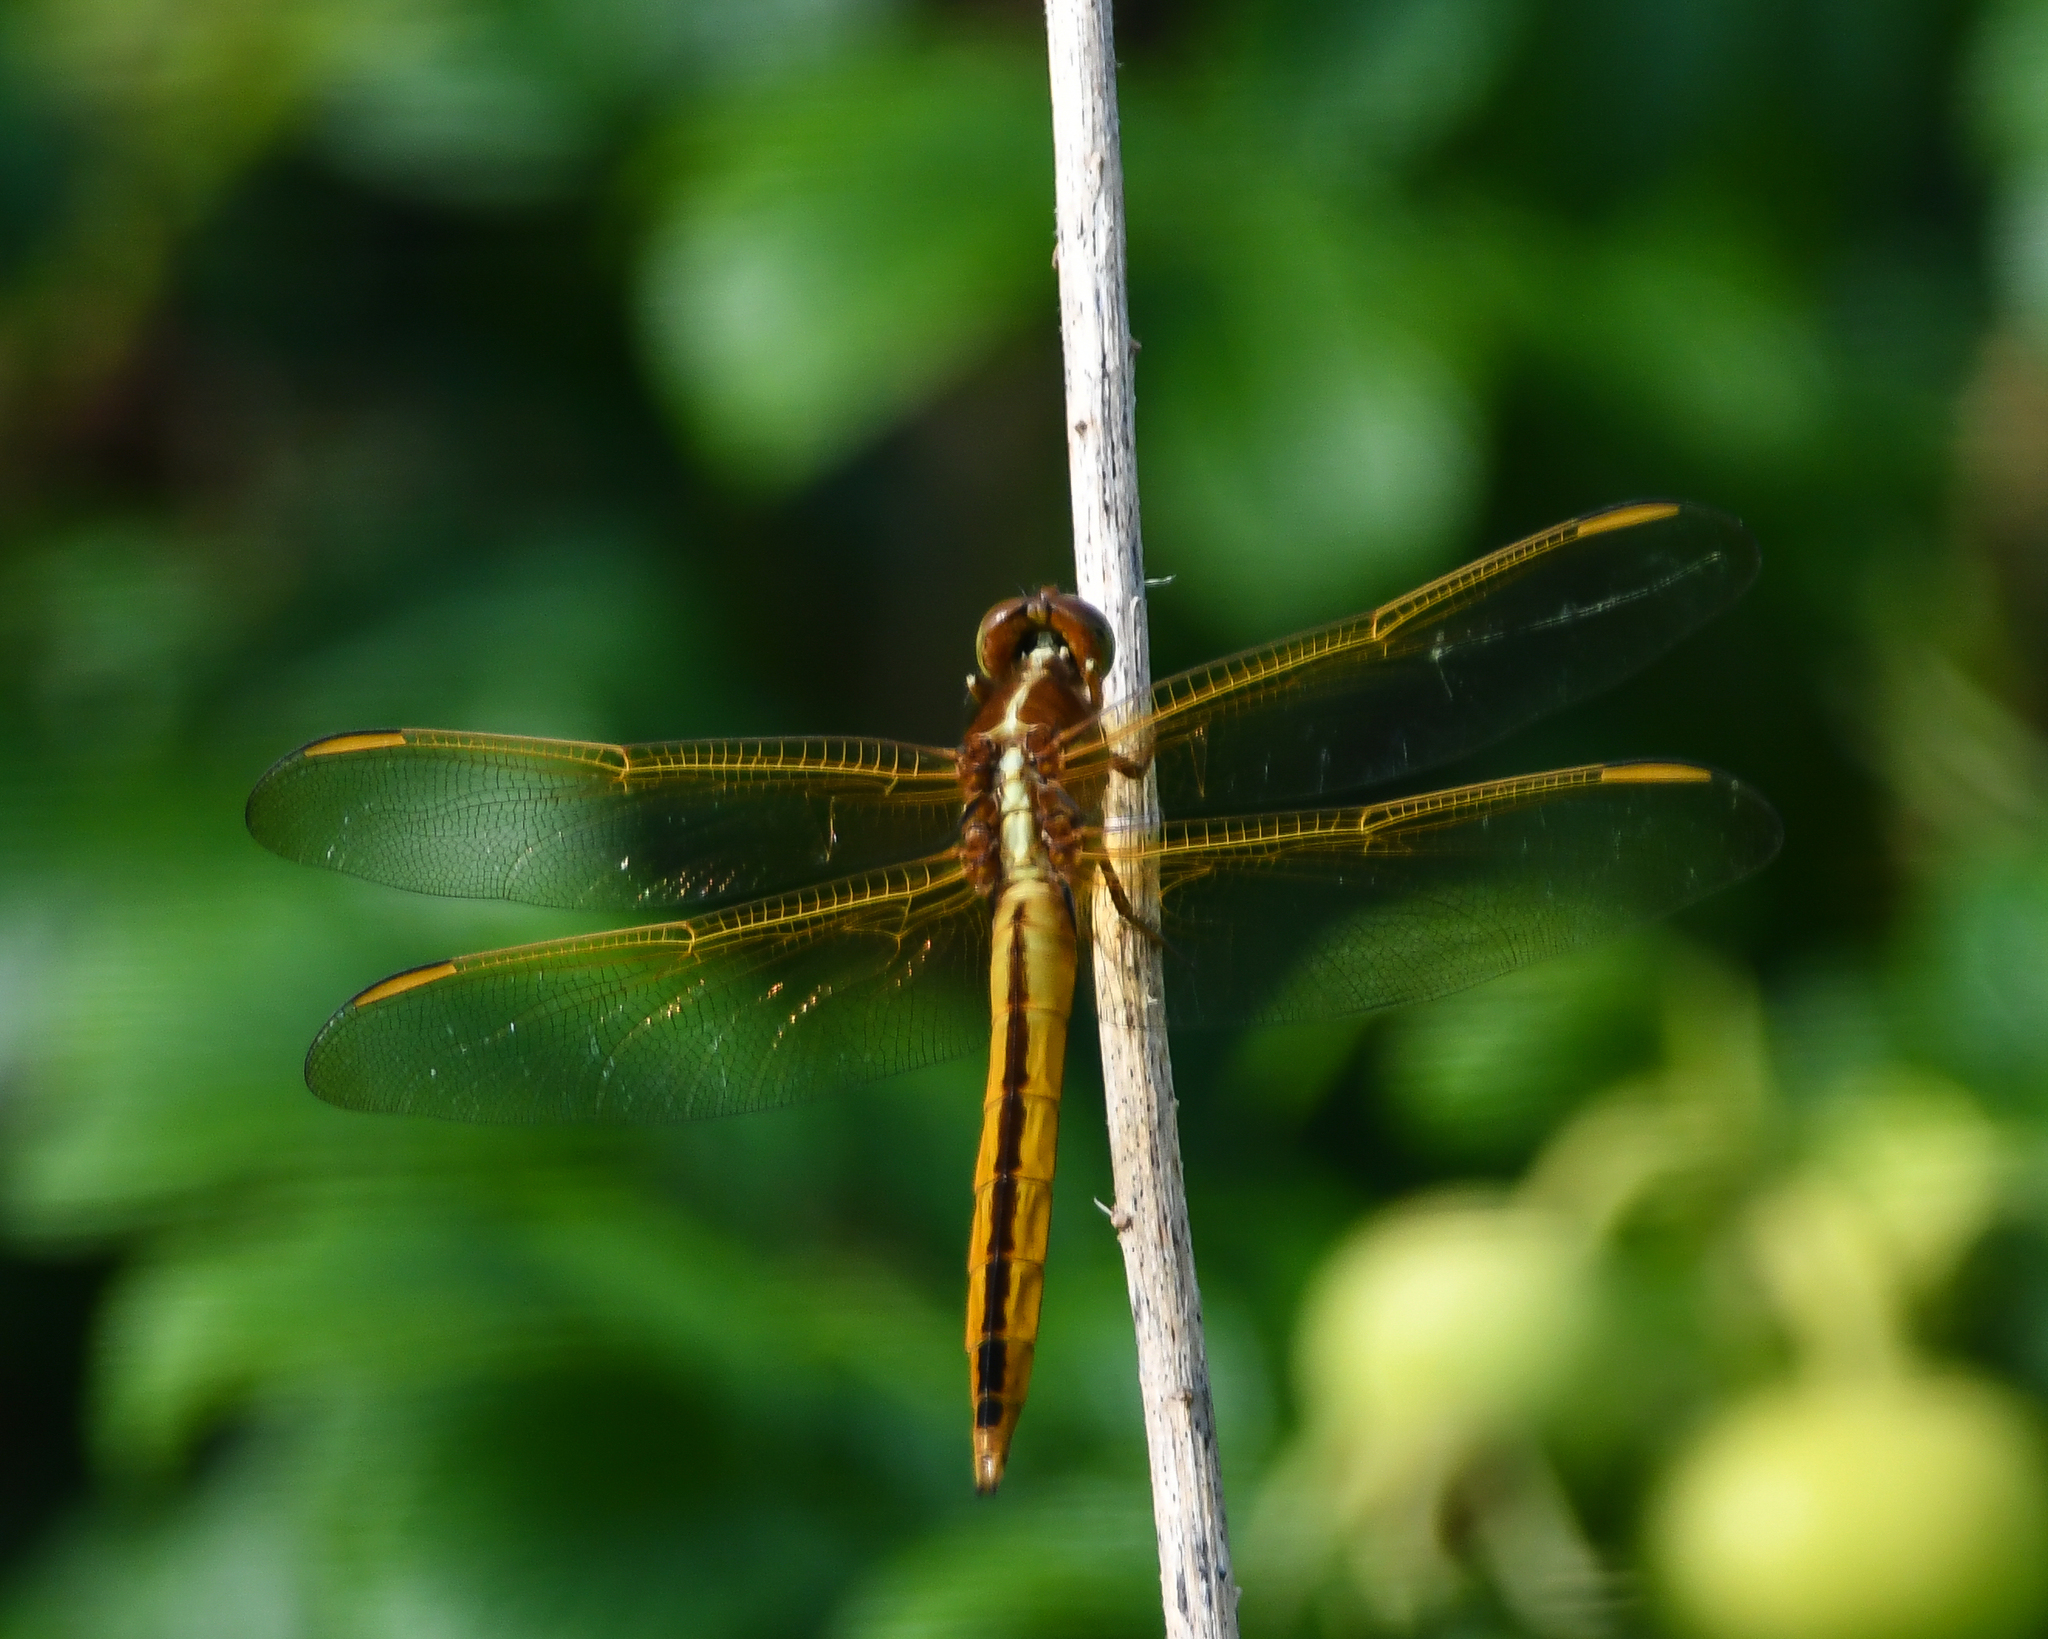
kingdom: Animalia
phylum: Arthropoda
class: Insecta
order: Odonata
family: Libellulidae
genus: Libellula
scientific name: Libellula needhami
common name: Needham's skimmer
